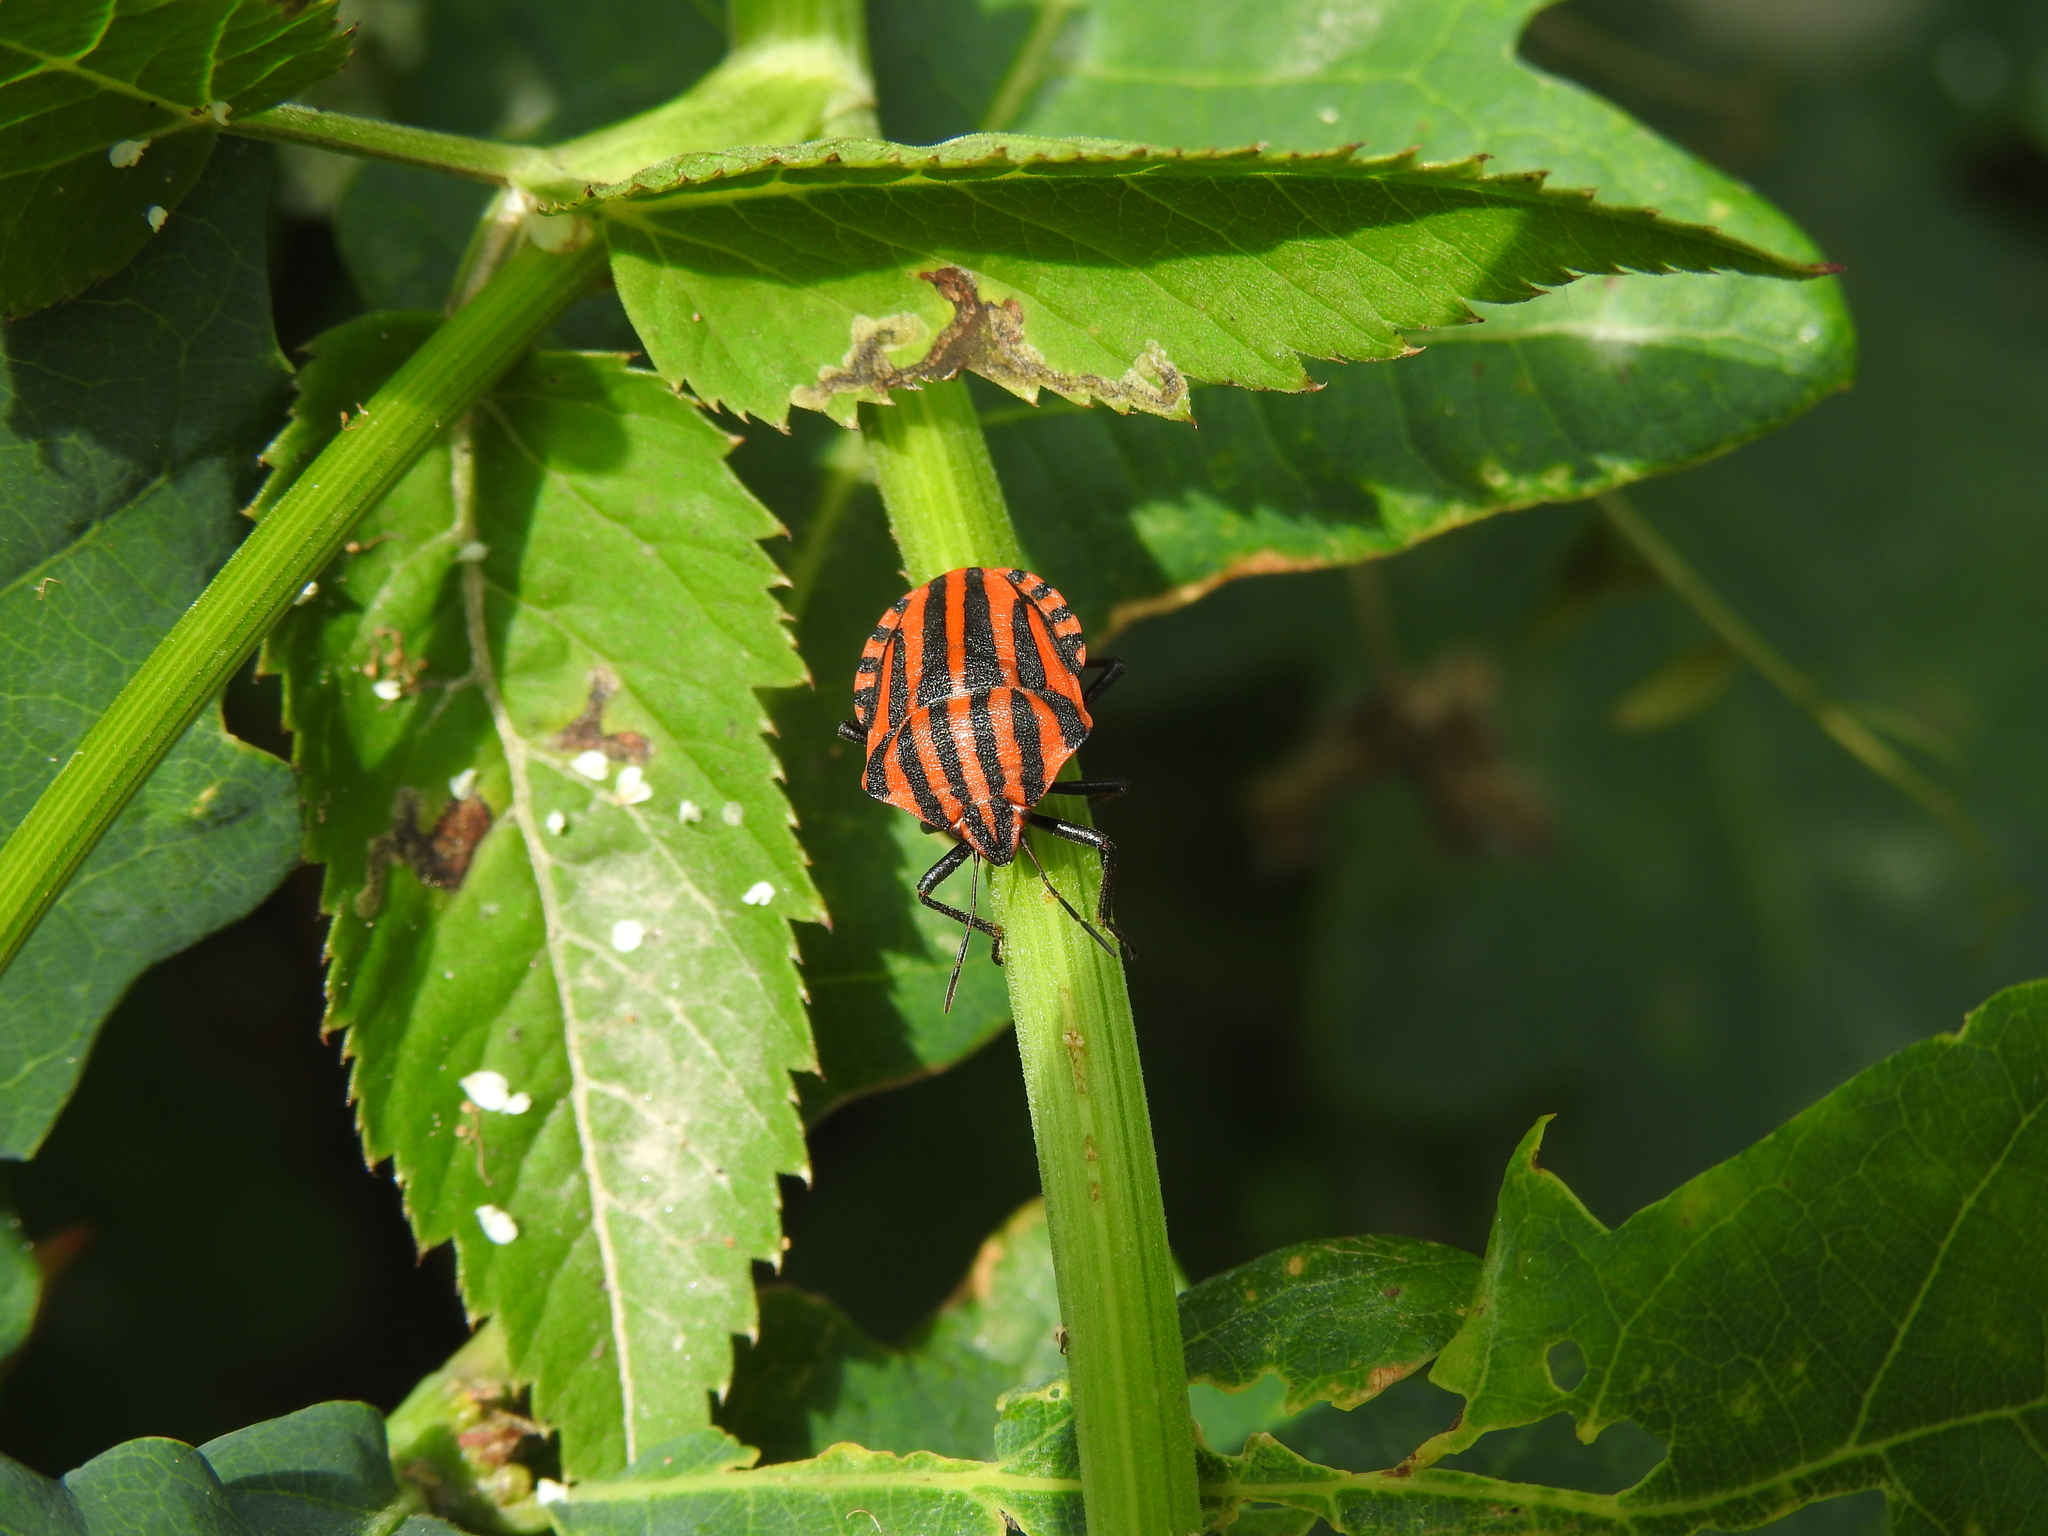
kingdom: Animalia
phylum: Arthropoda
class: Insecta
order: Hemiptera
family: Pentatomidae
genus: Graphosoma
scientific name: Graphosoma italicum
